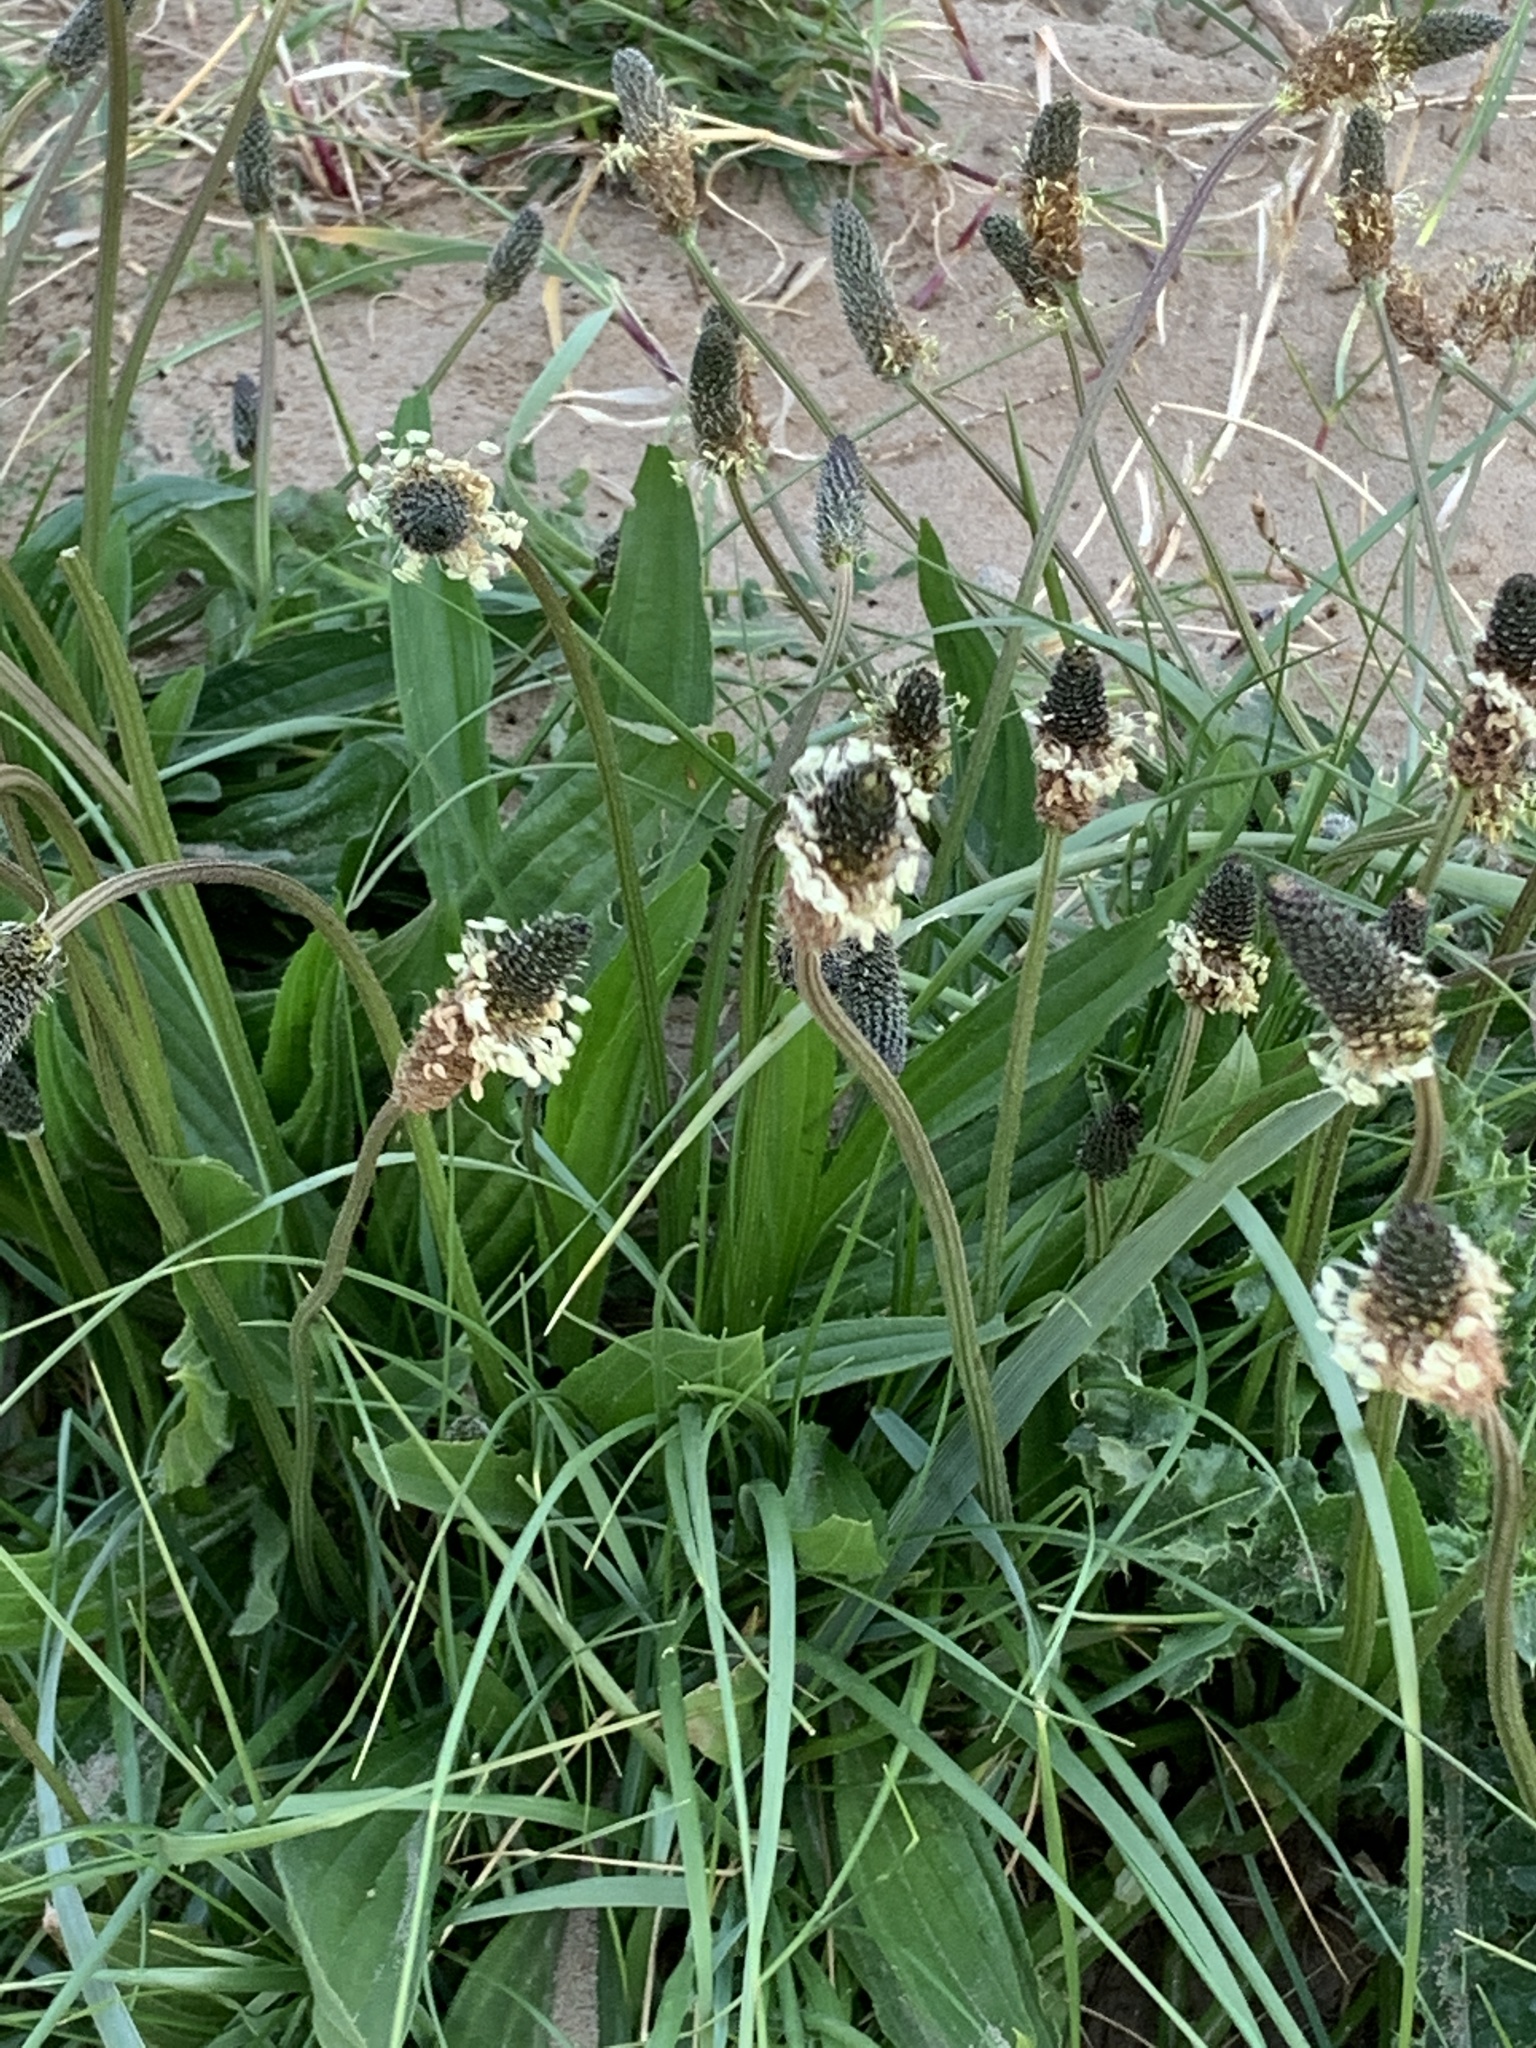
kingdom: Plantae
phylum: Tracheophyta
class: Magnoliopsida
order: Lamiales
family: Plantaginaceae
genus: Plantago
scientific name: Plantago lanceolata
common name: Ribwort plantain
